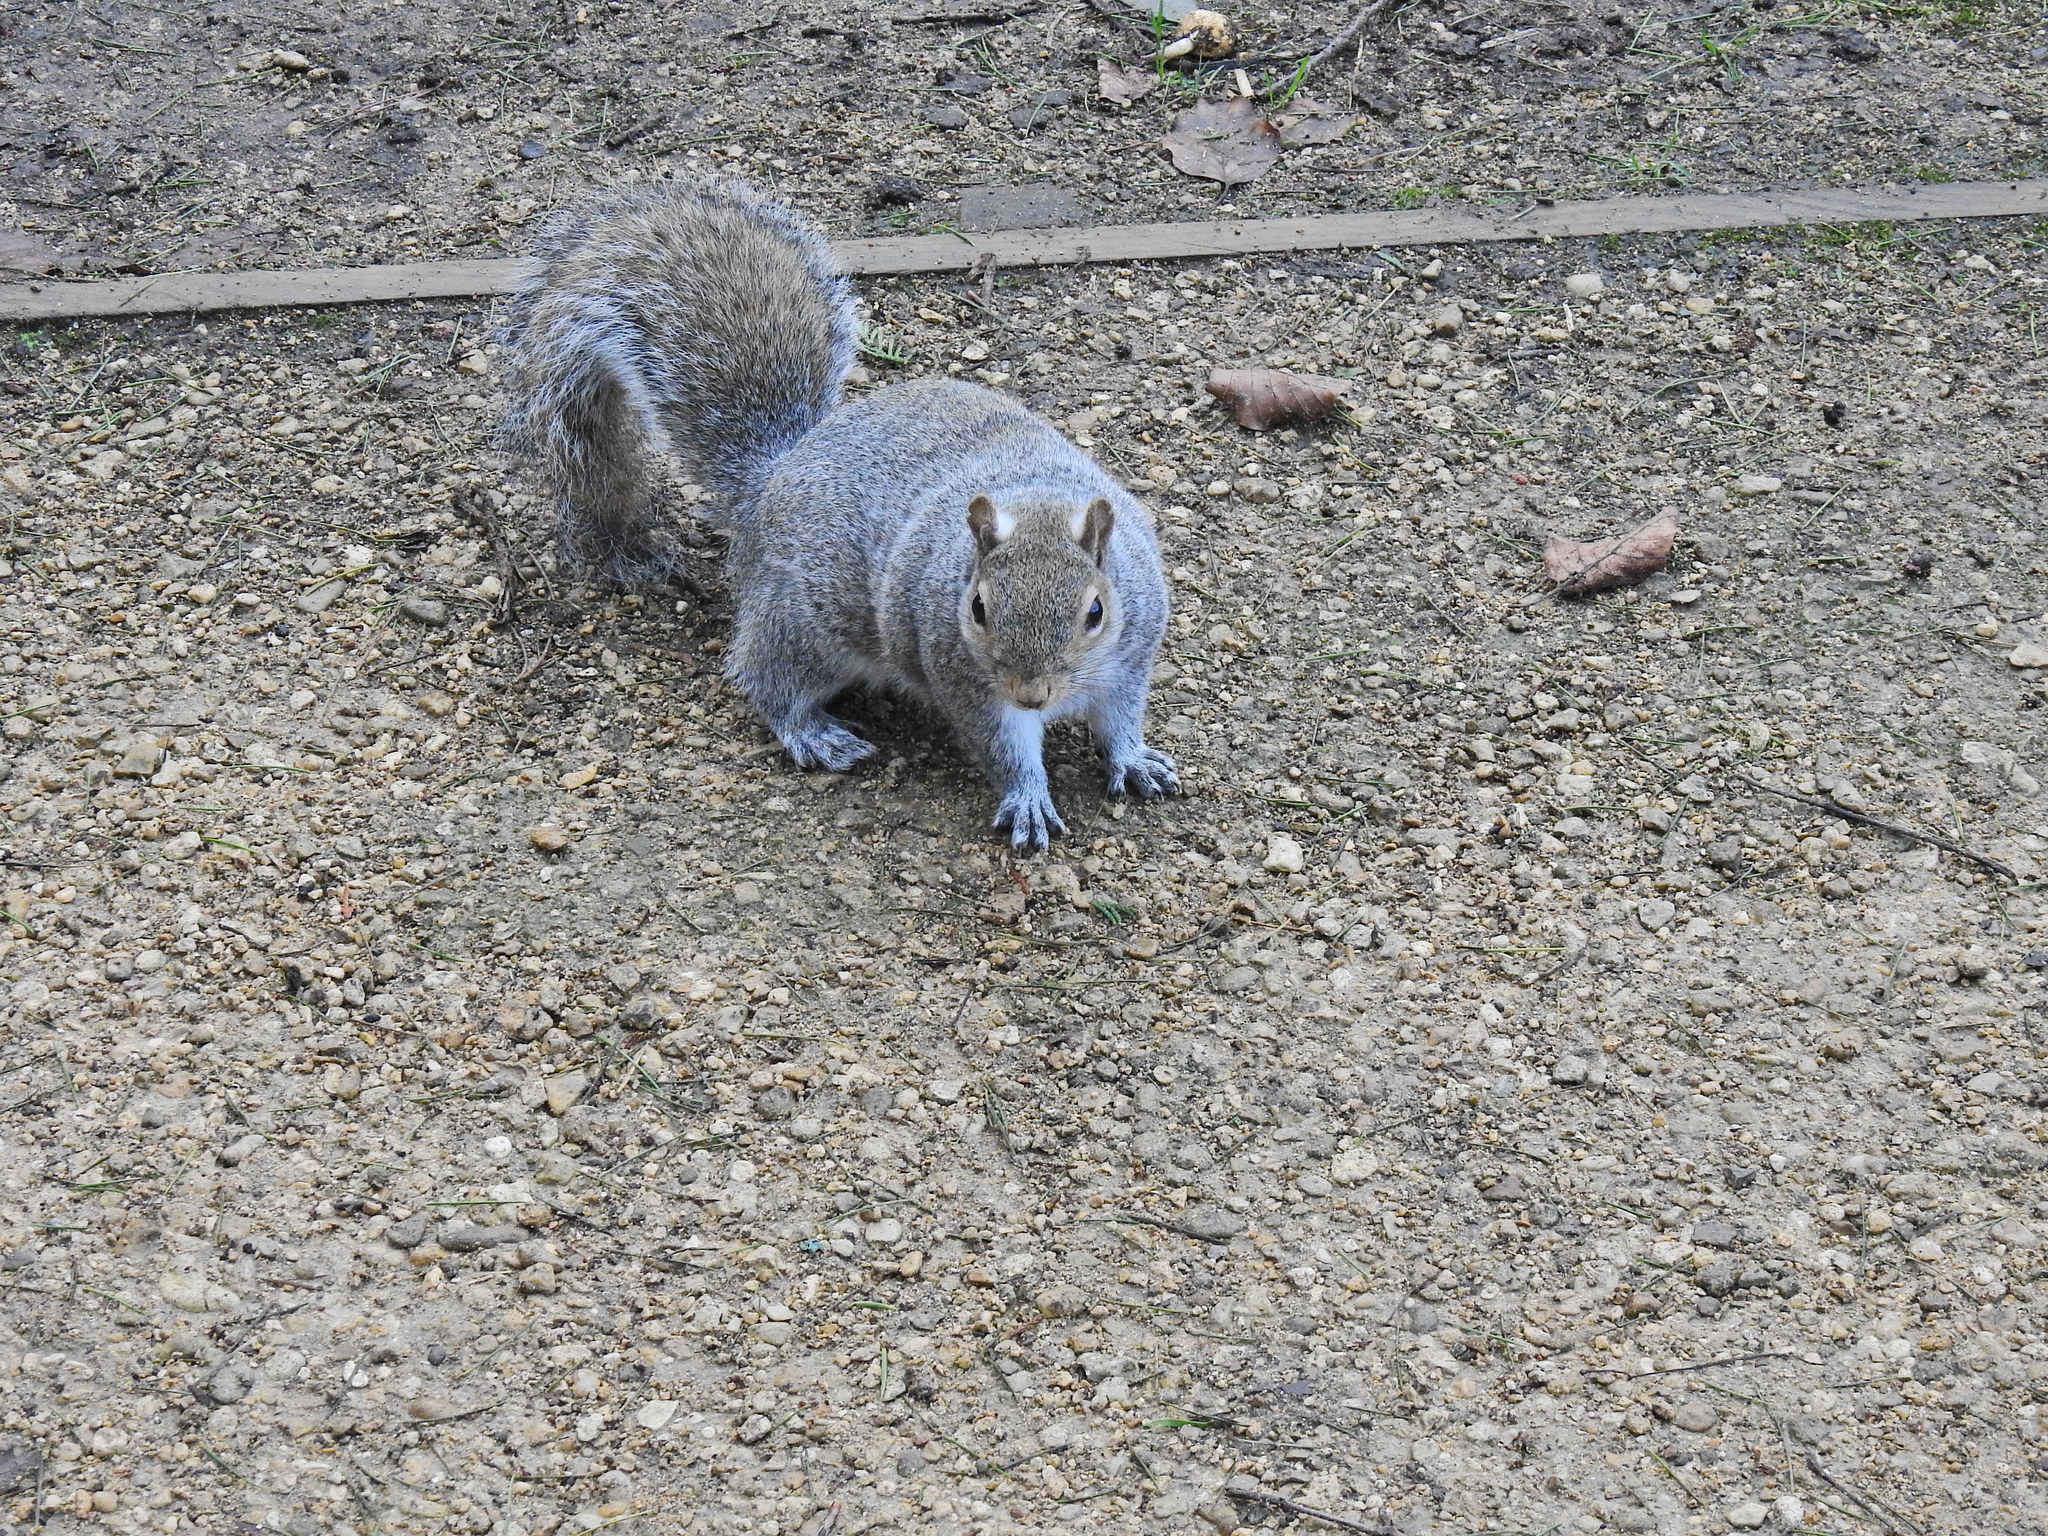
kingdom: Animalia
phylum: Chordata
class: Mammalia
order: Rodentia
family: Sciuridae
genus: Sciurus
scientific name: Sciurus carolinensis
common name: Eastern gray squirrel
